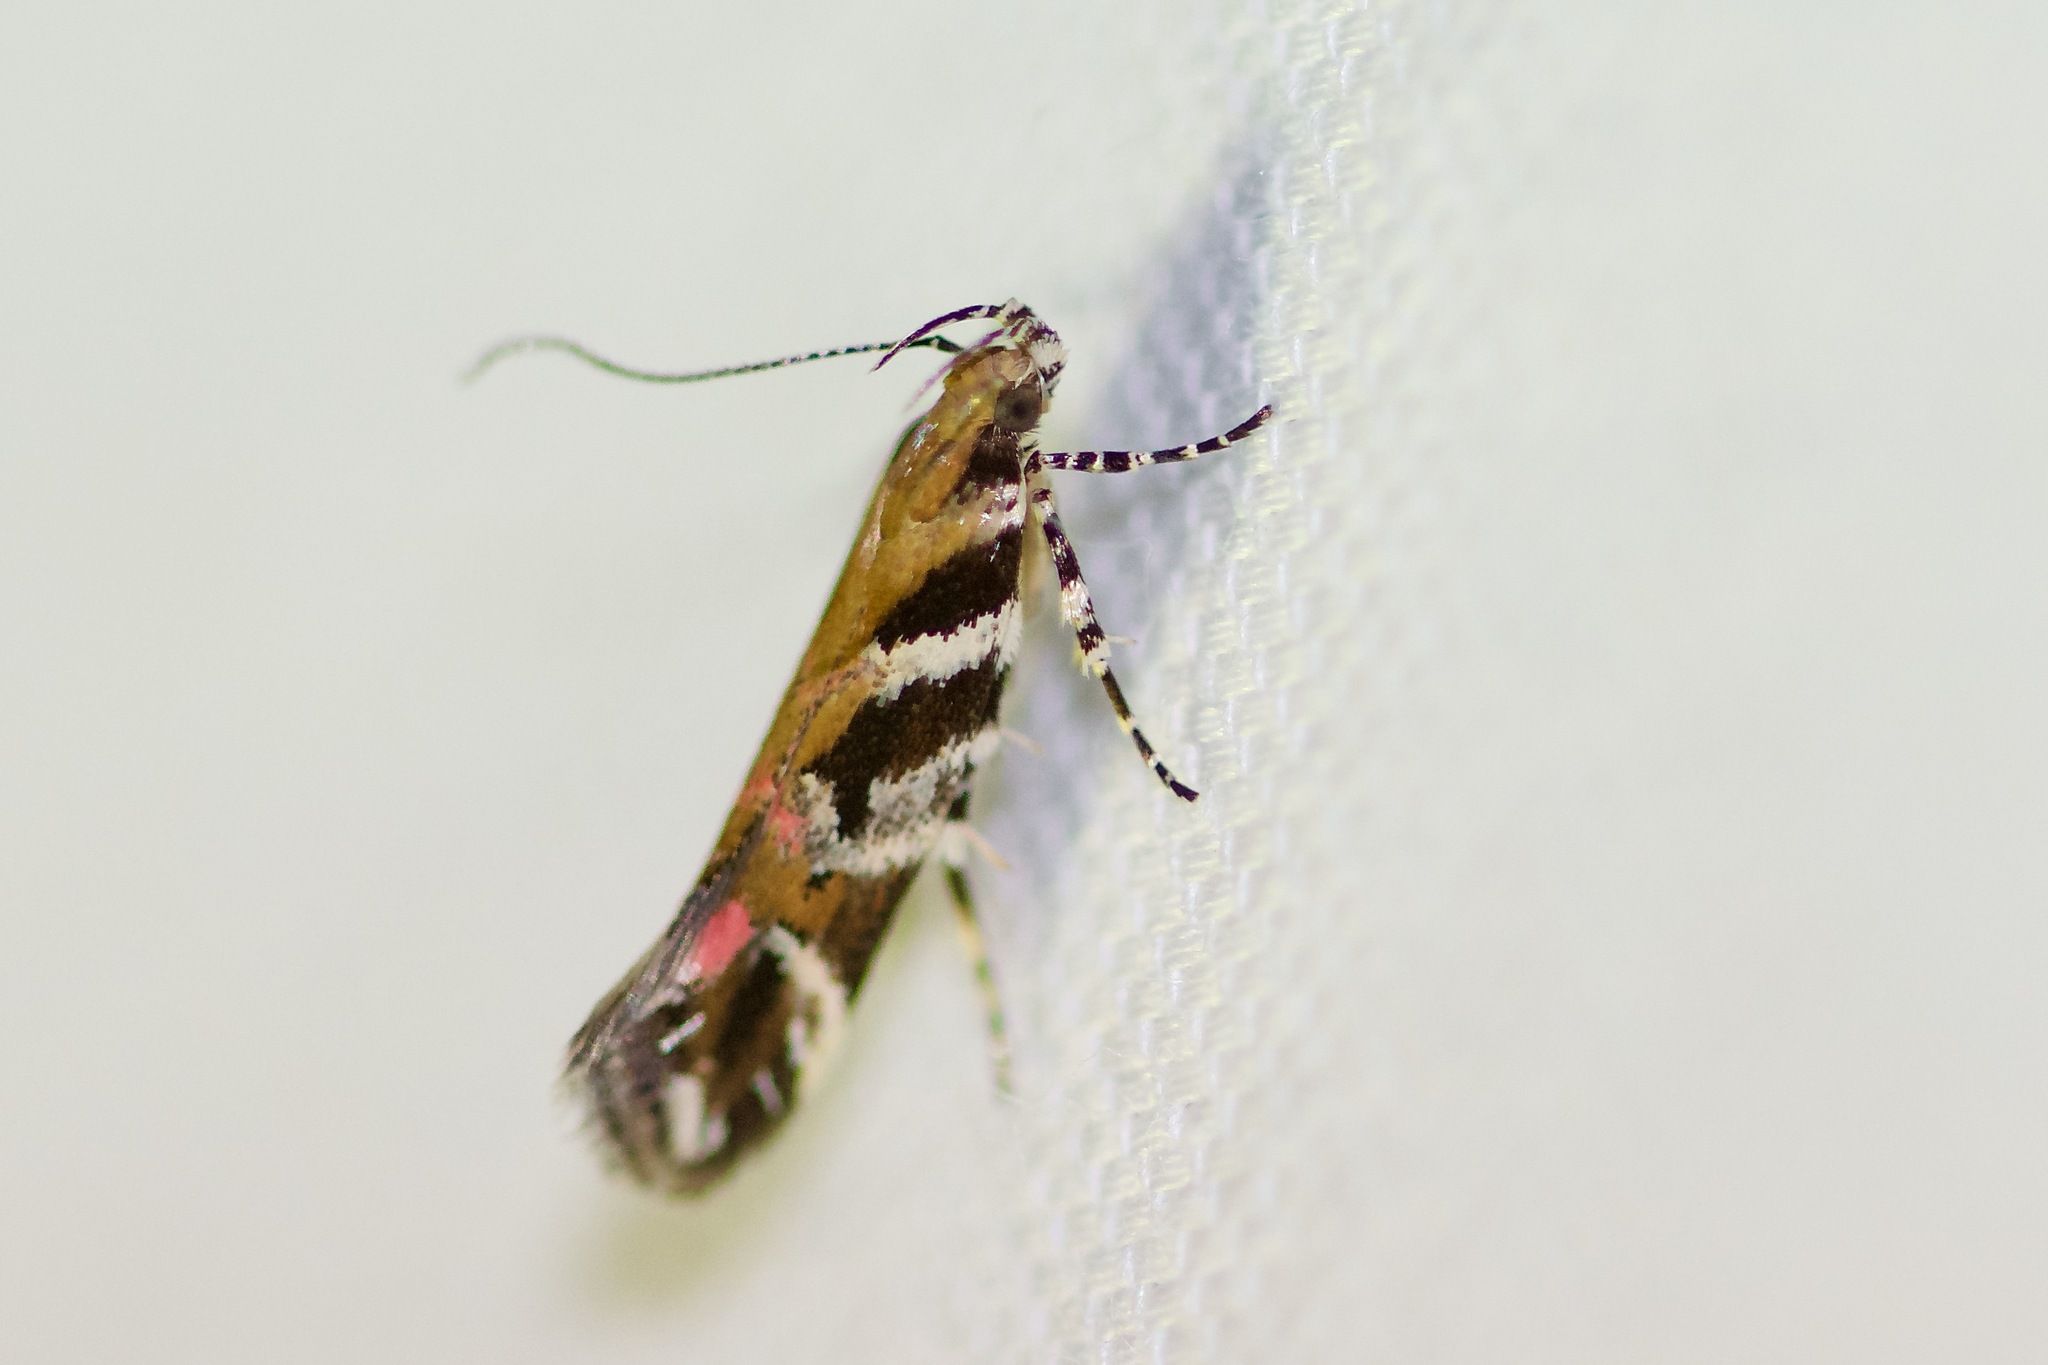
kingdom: Animalia
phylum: Arthropoda
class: Insecta
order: Lepidoptera
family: Gelechiidae
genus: Aristotelia
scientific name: Aristotelia roseosuffusella
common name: Pink-washed aristotelia moth
